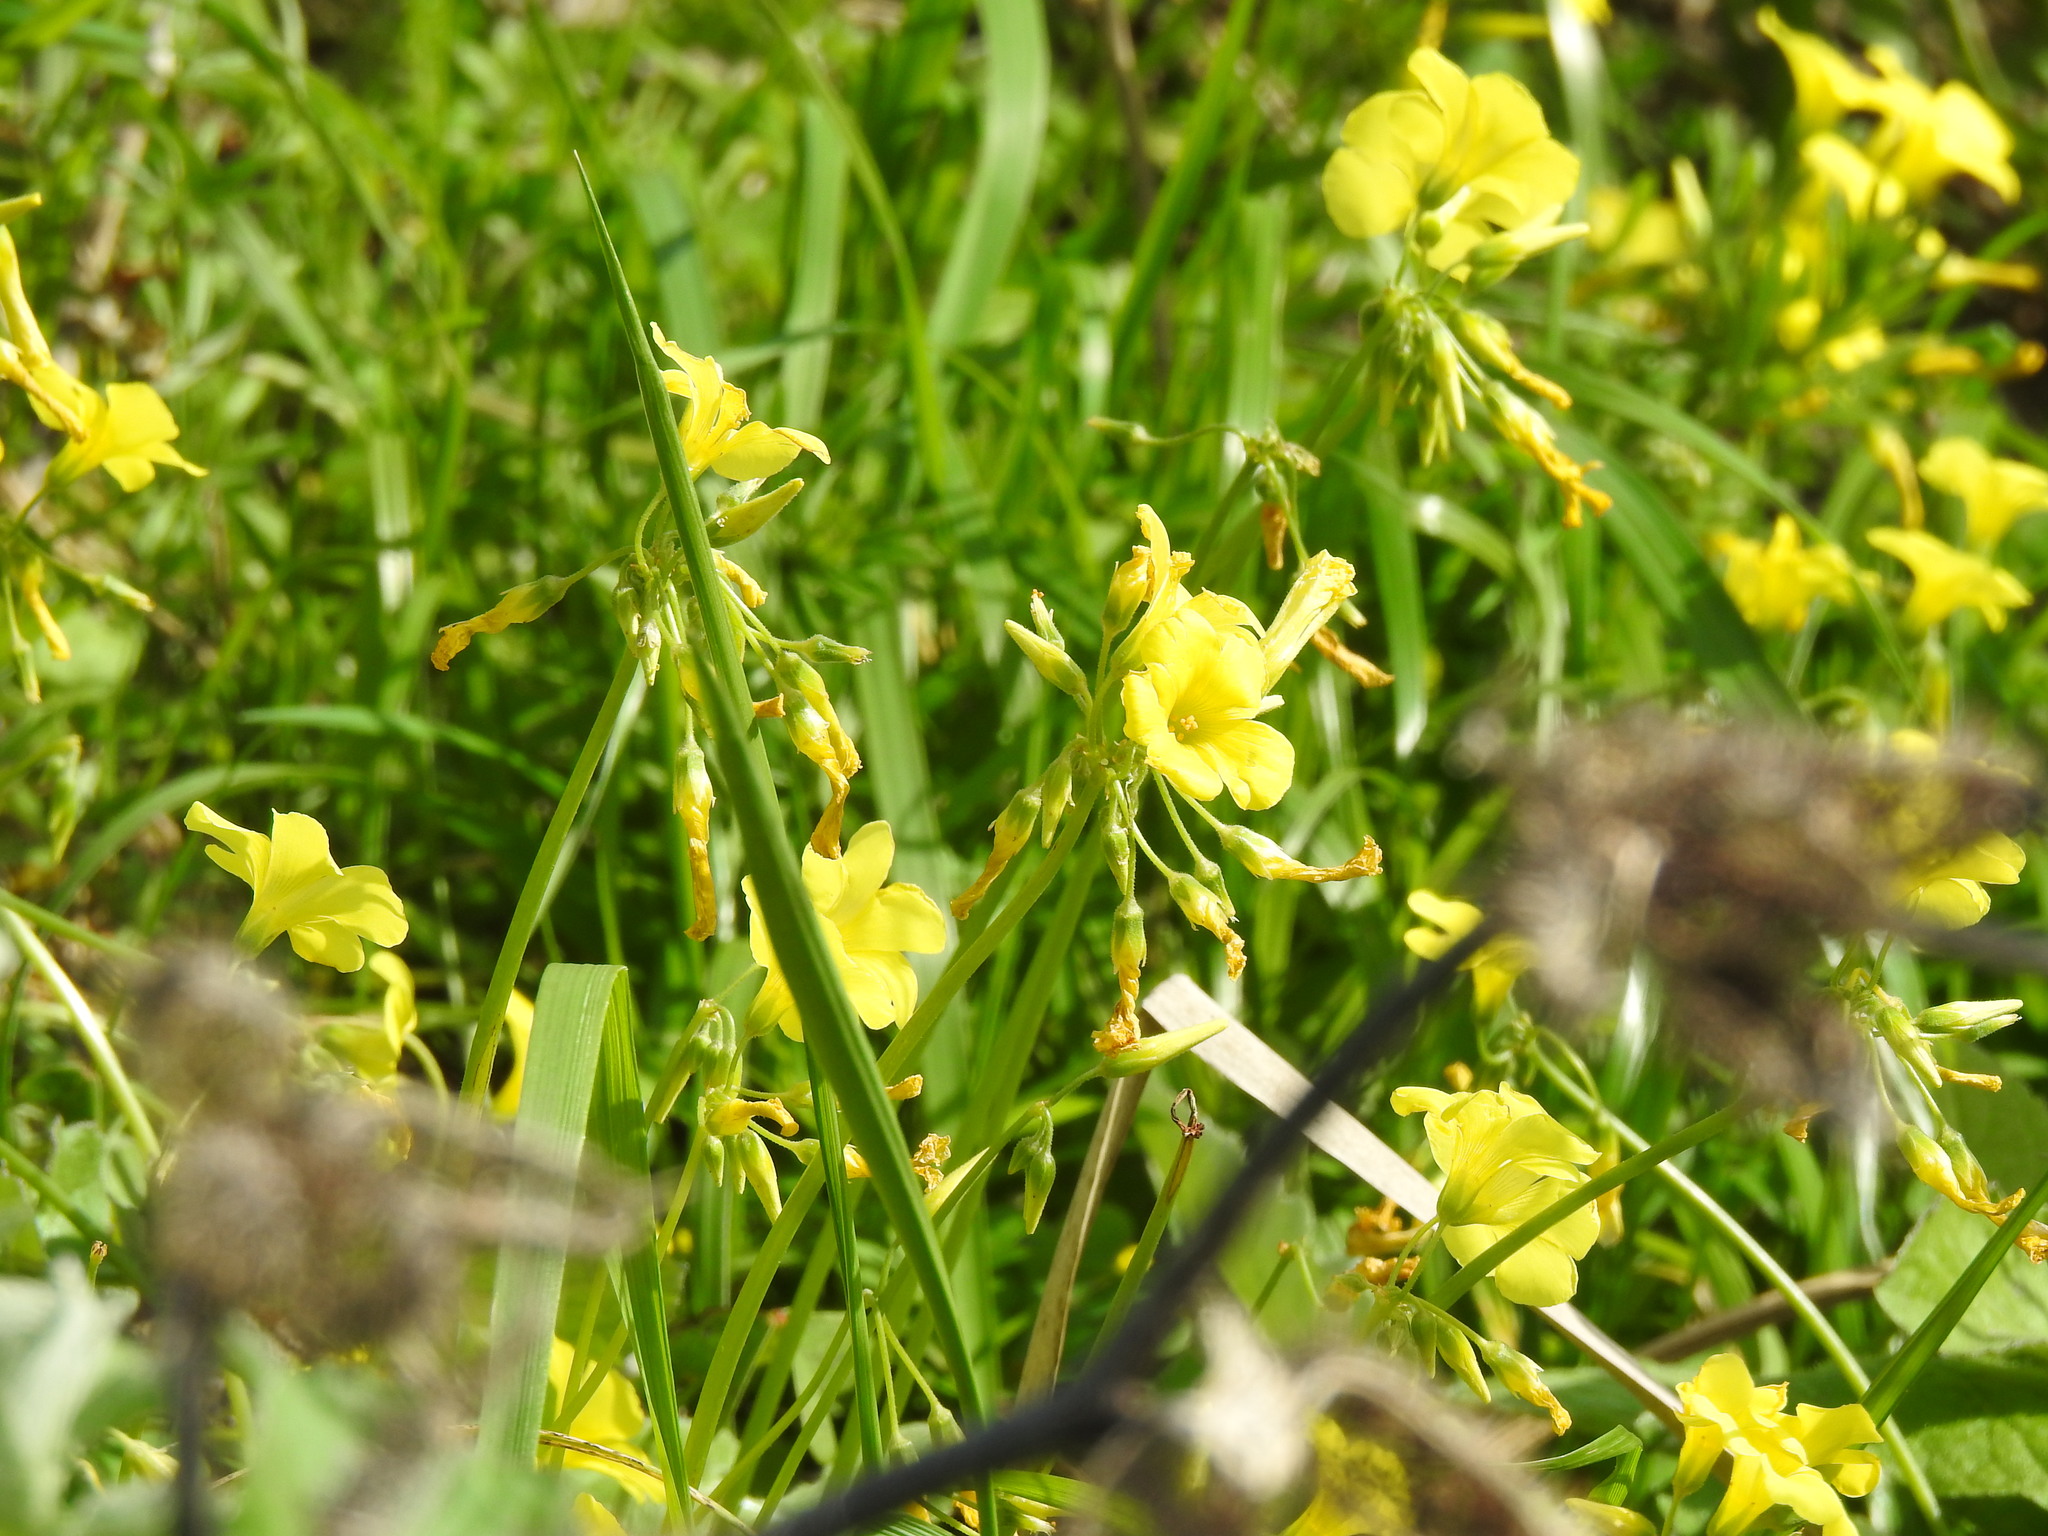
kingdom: Plantae
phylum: Tracheophyta
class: Magnoliopsida
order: Oxalidales
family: Oxalidaceae
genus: Oxalis
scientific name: Oxalis pes-caprae
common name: Bermuda-buttercup
